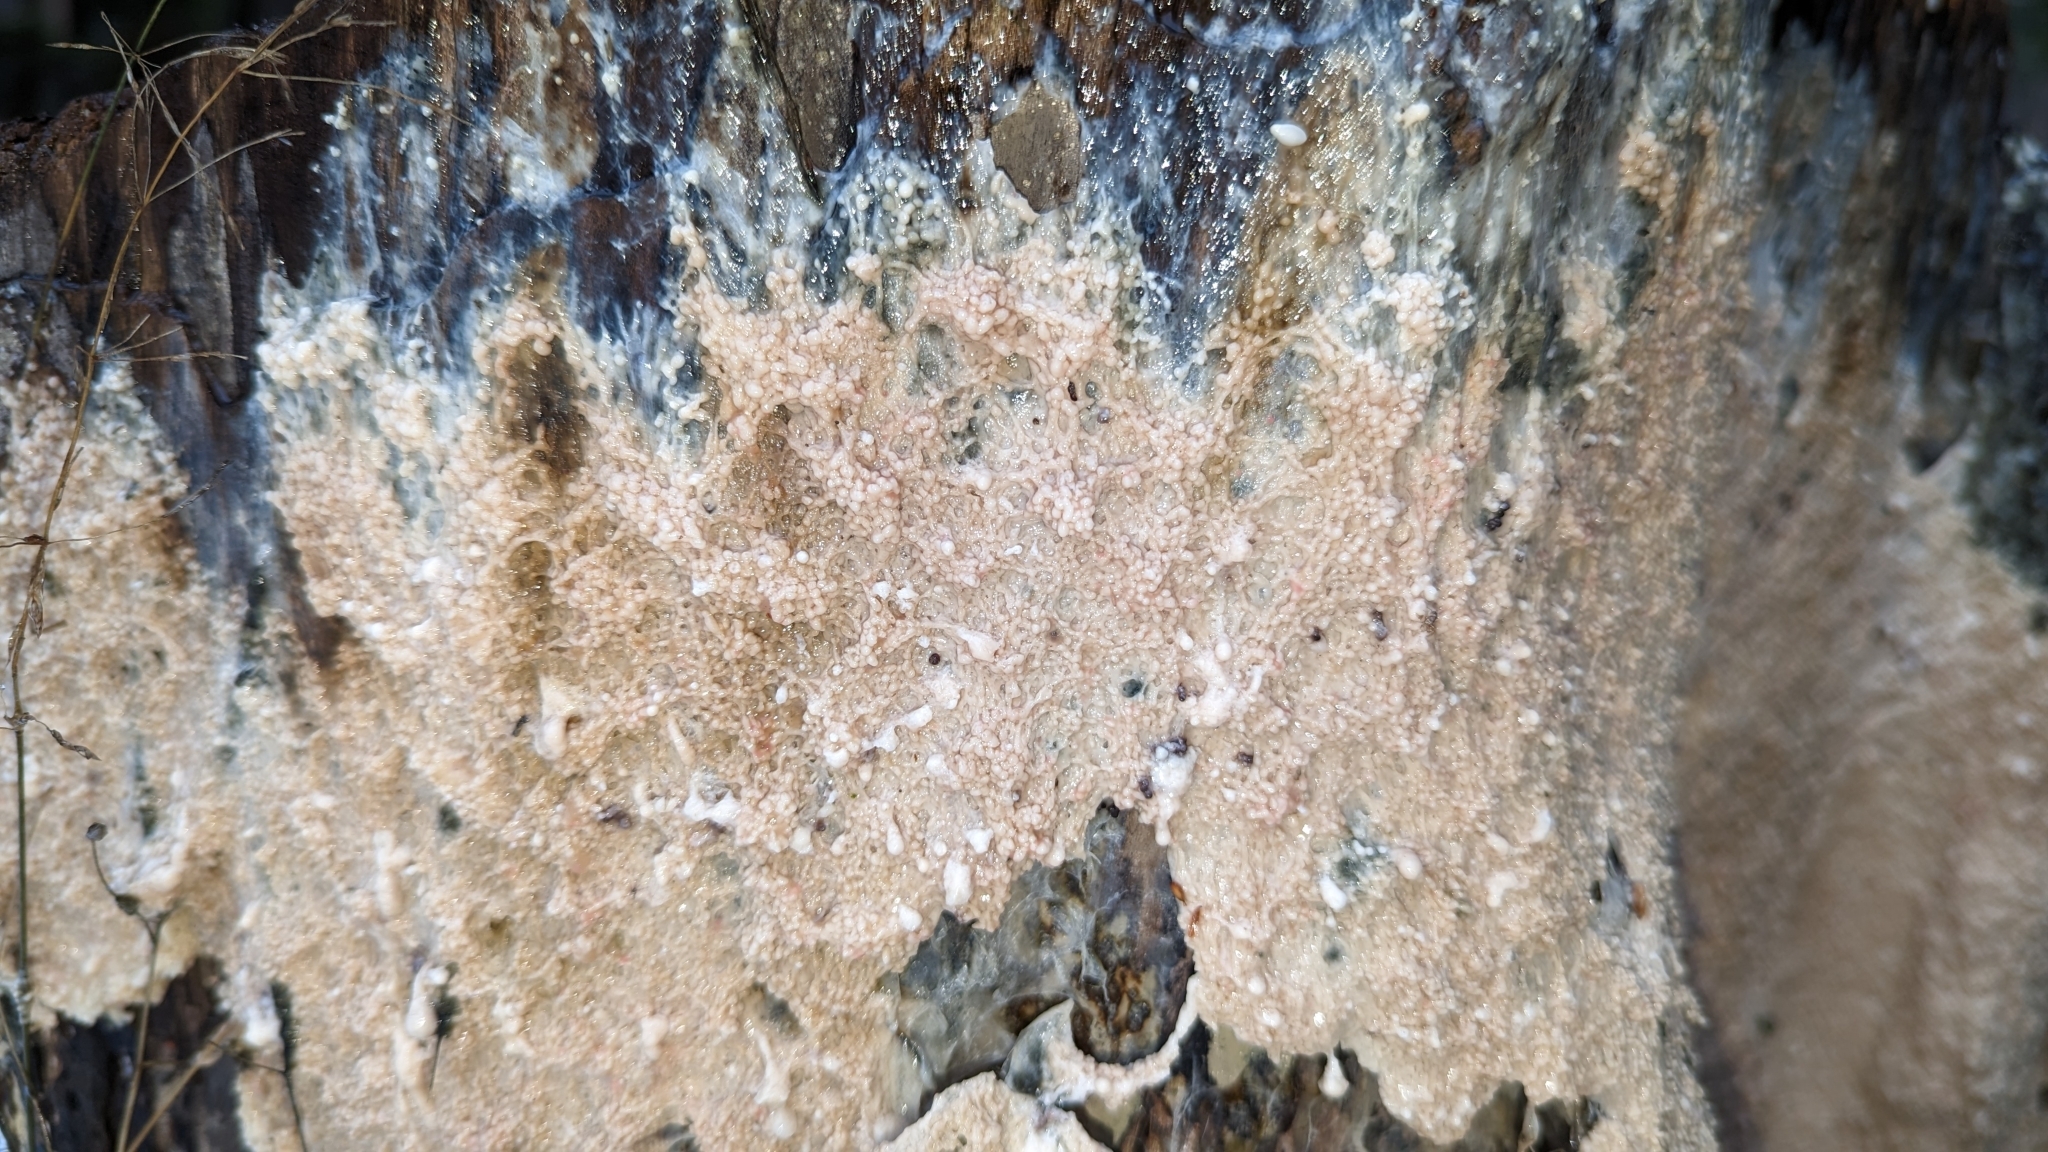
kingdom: Protozoa
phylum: Mycetozoa
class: Myxomycetes
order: Stemonitidales
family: Stemonitidaceae
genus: Brefeldia
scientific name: Brefeldia maxima
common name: Tapioca slime mold
